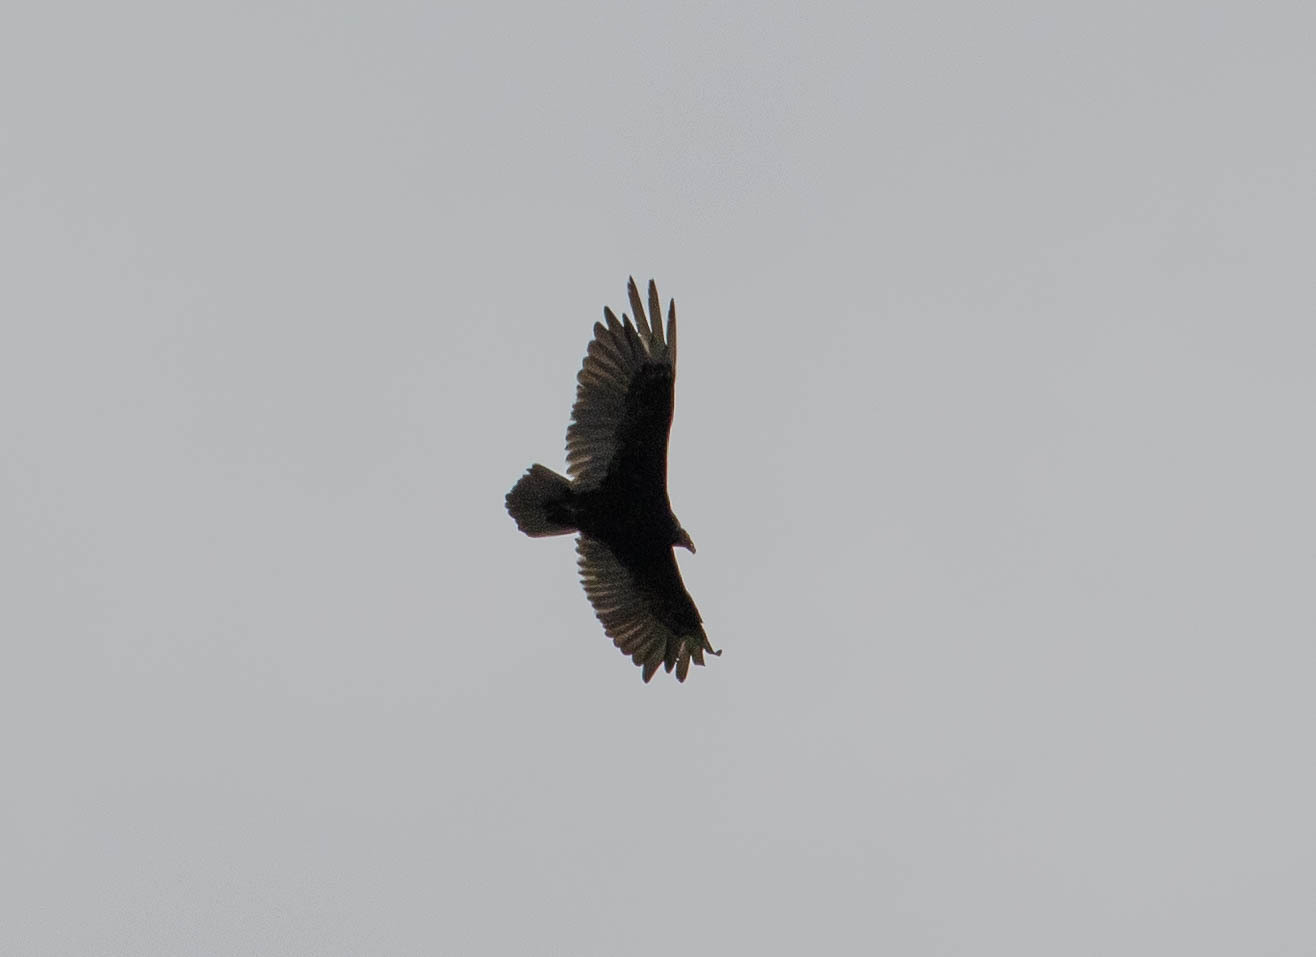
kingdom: Animalia
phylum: Chordata
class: Aves
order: Accipitriformes
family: Cathartidae
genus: Cathartes
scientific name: Cathartes aura
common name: Turkey vulture
